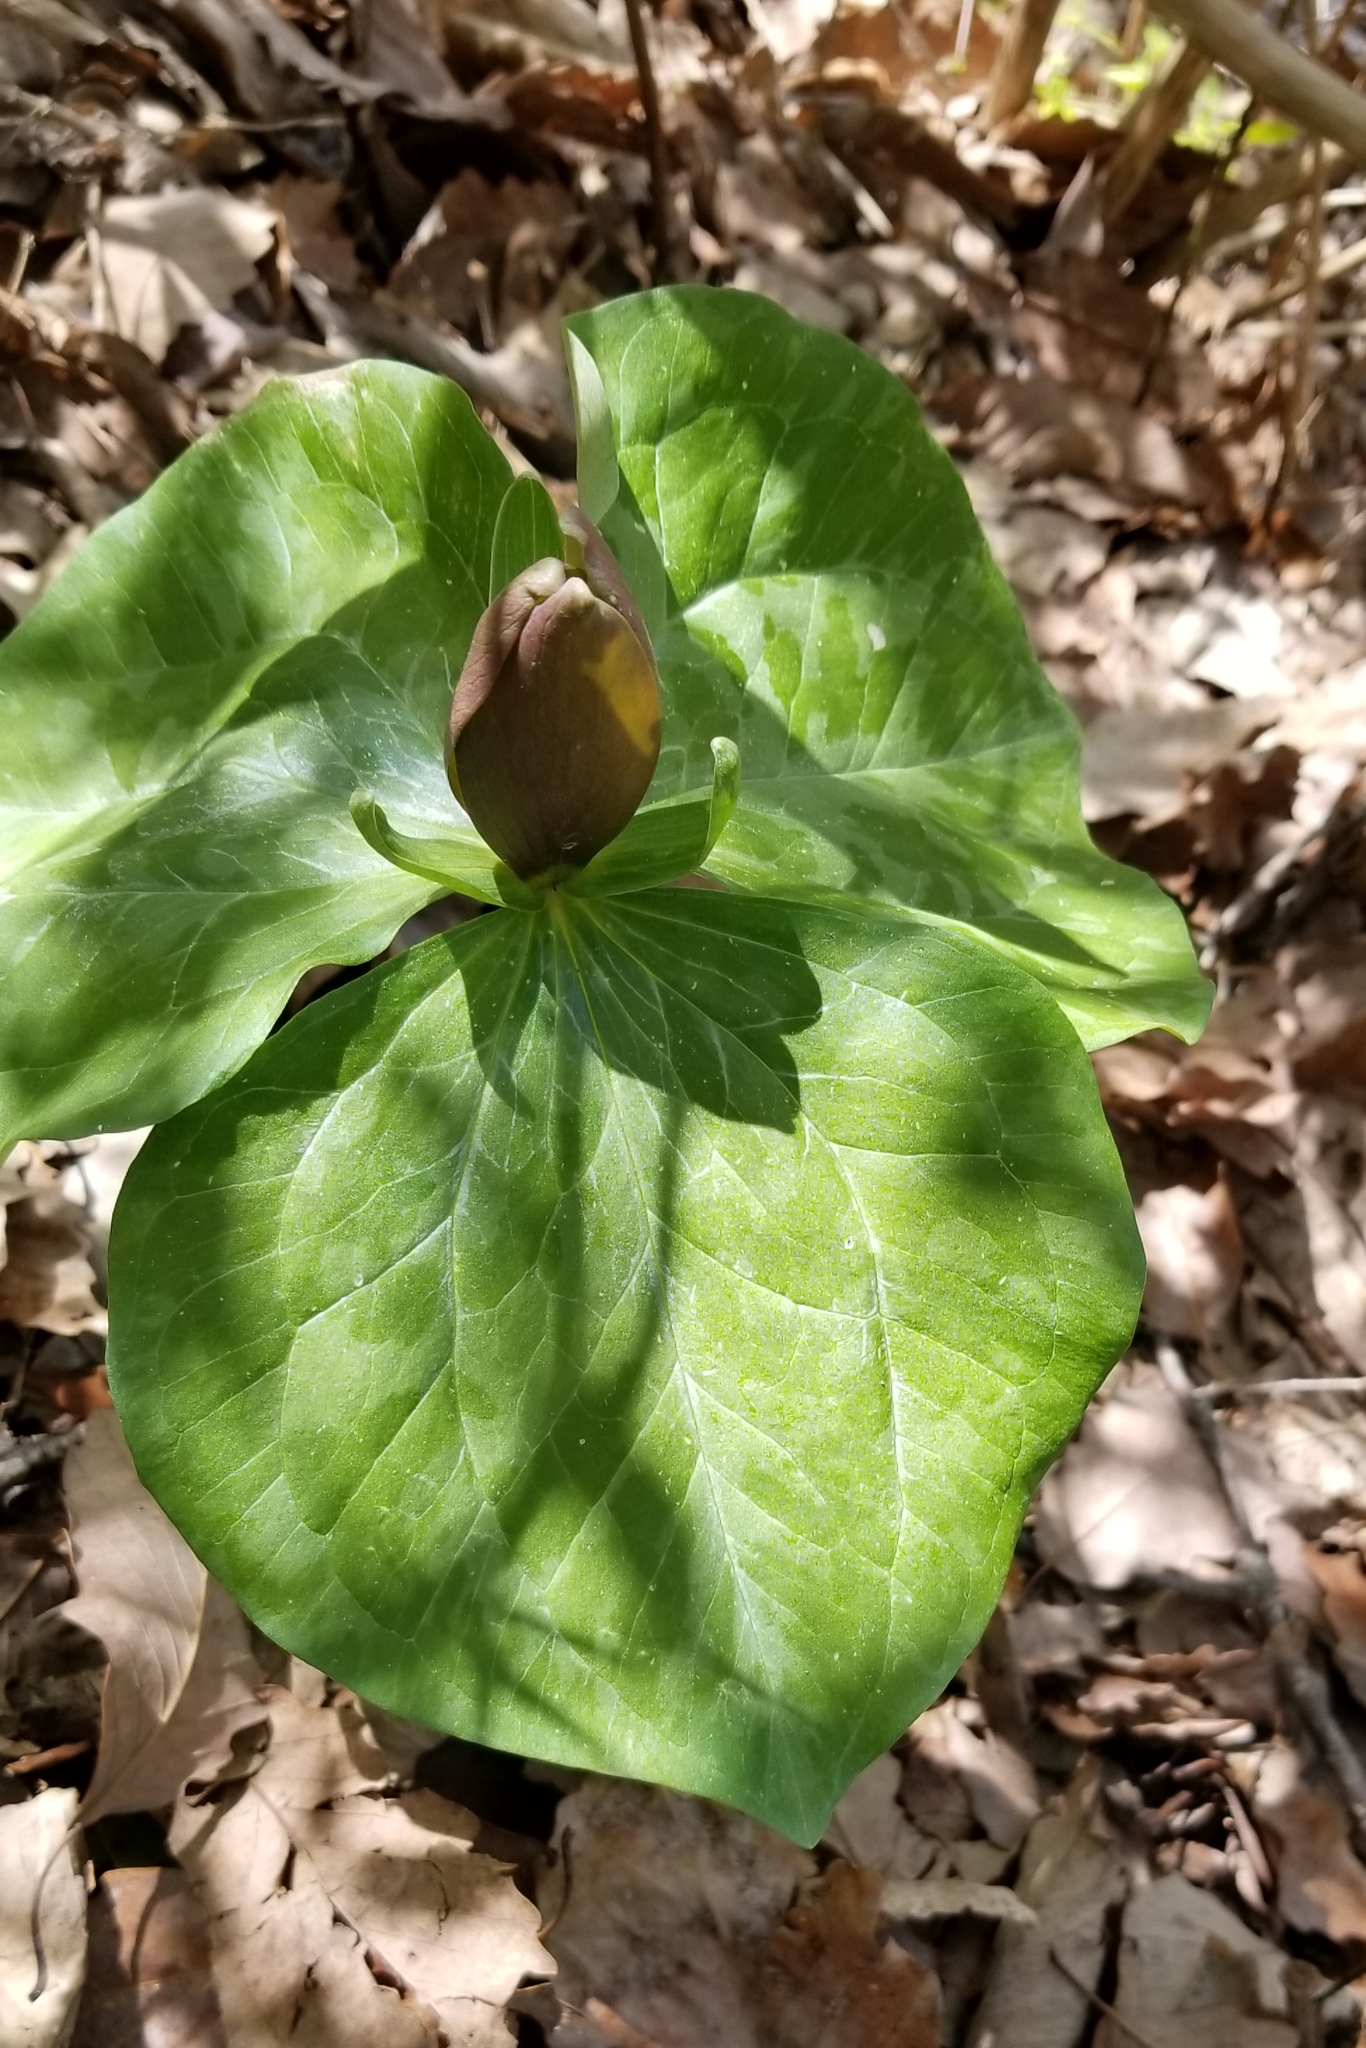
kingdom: Plantae
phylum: Tracheophyta
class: Liliopsida
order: Liliales
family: Melanthiaceae
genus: Trillium
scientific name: Trillium cuneatum
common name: Cuneate trillium
